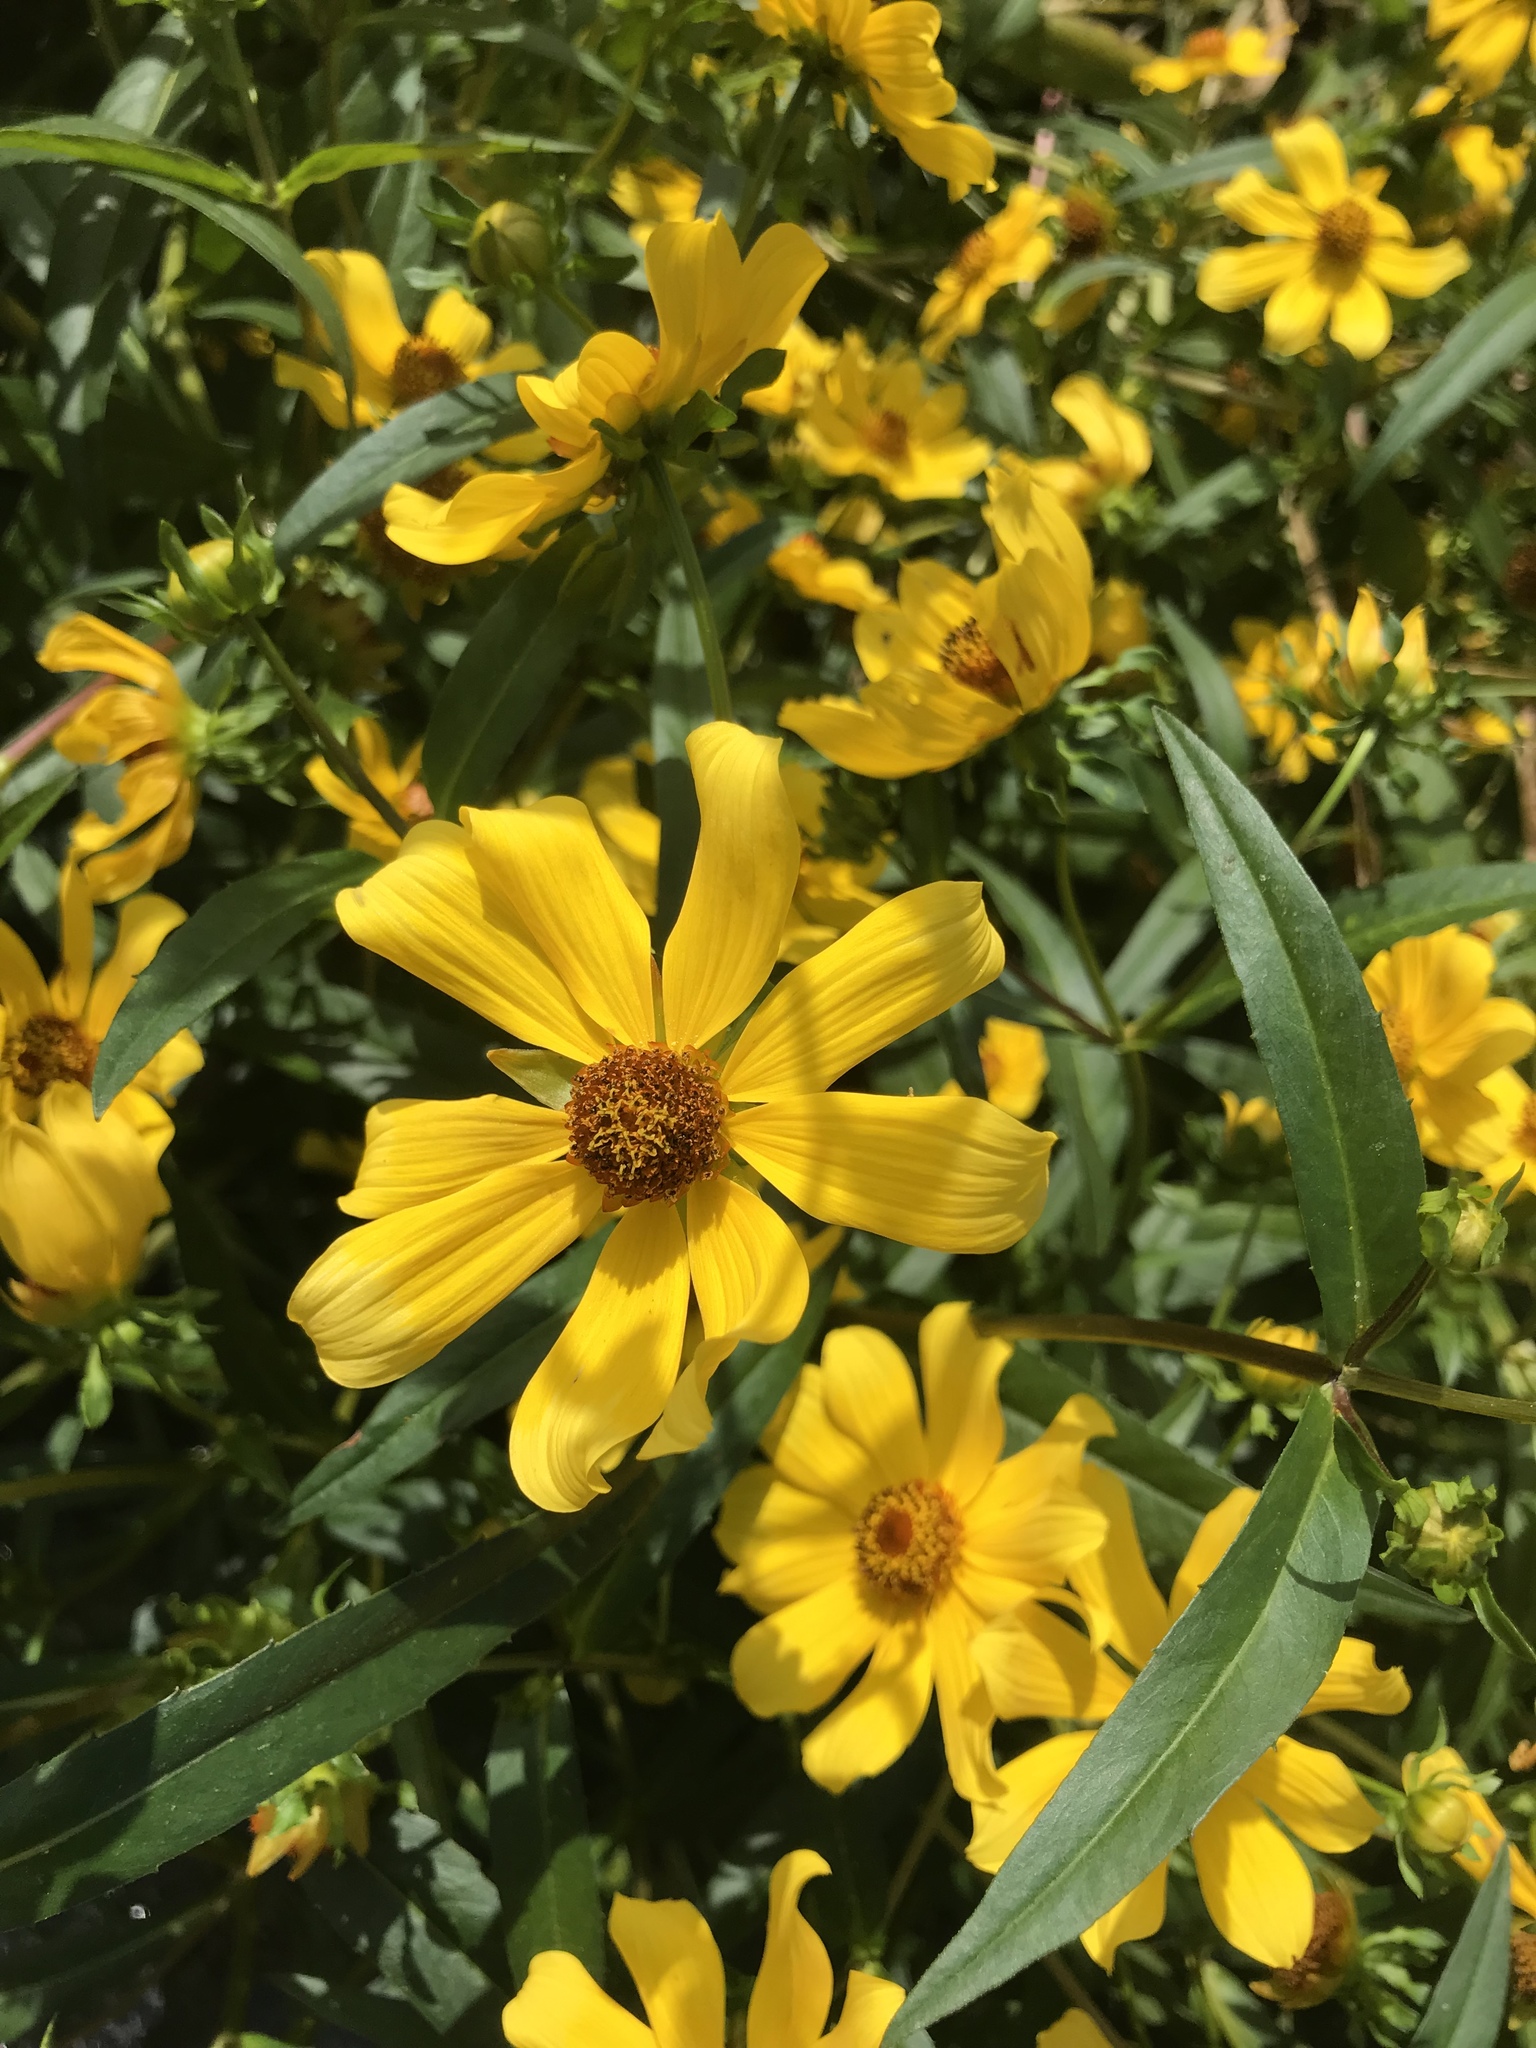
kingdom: Plantae
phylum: Tracheophyta
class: Magnoliopsida
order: Asterales
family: Asteraceae
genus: Bidens
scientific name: Bidens laevis
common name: Larger bur-marigold
